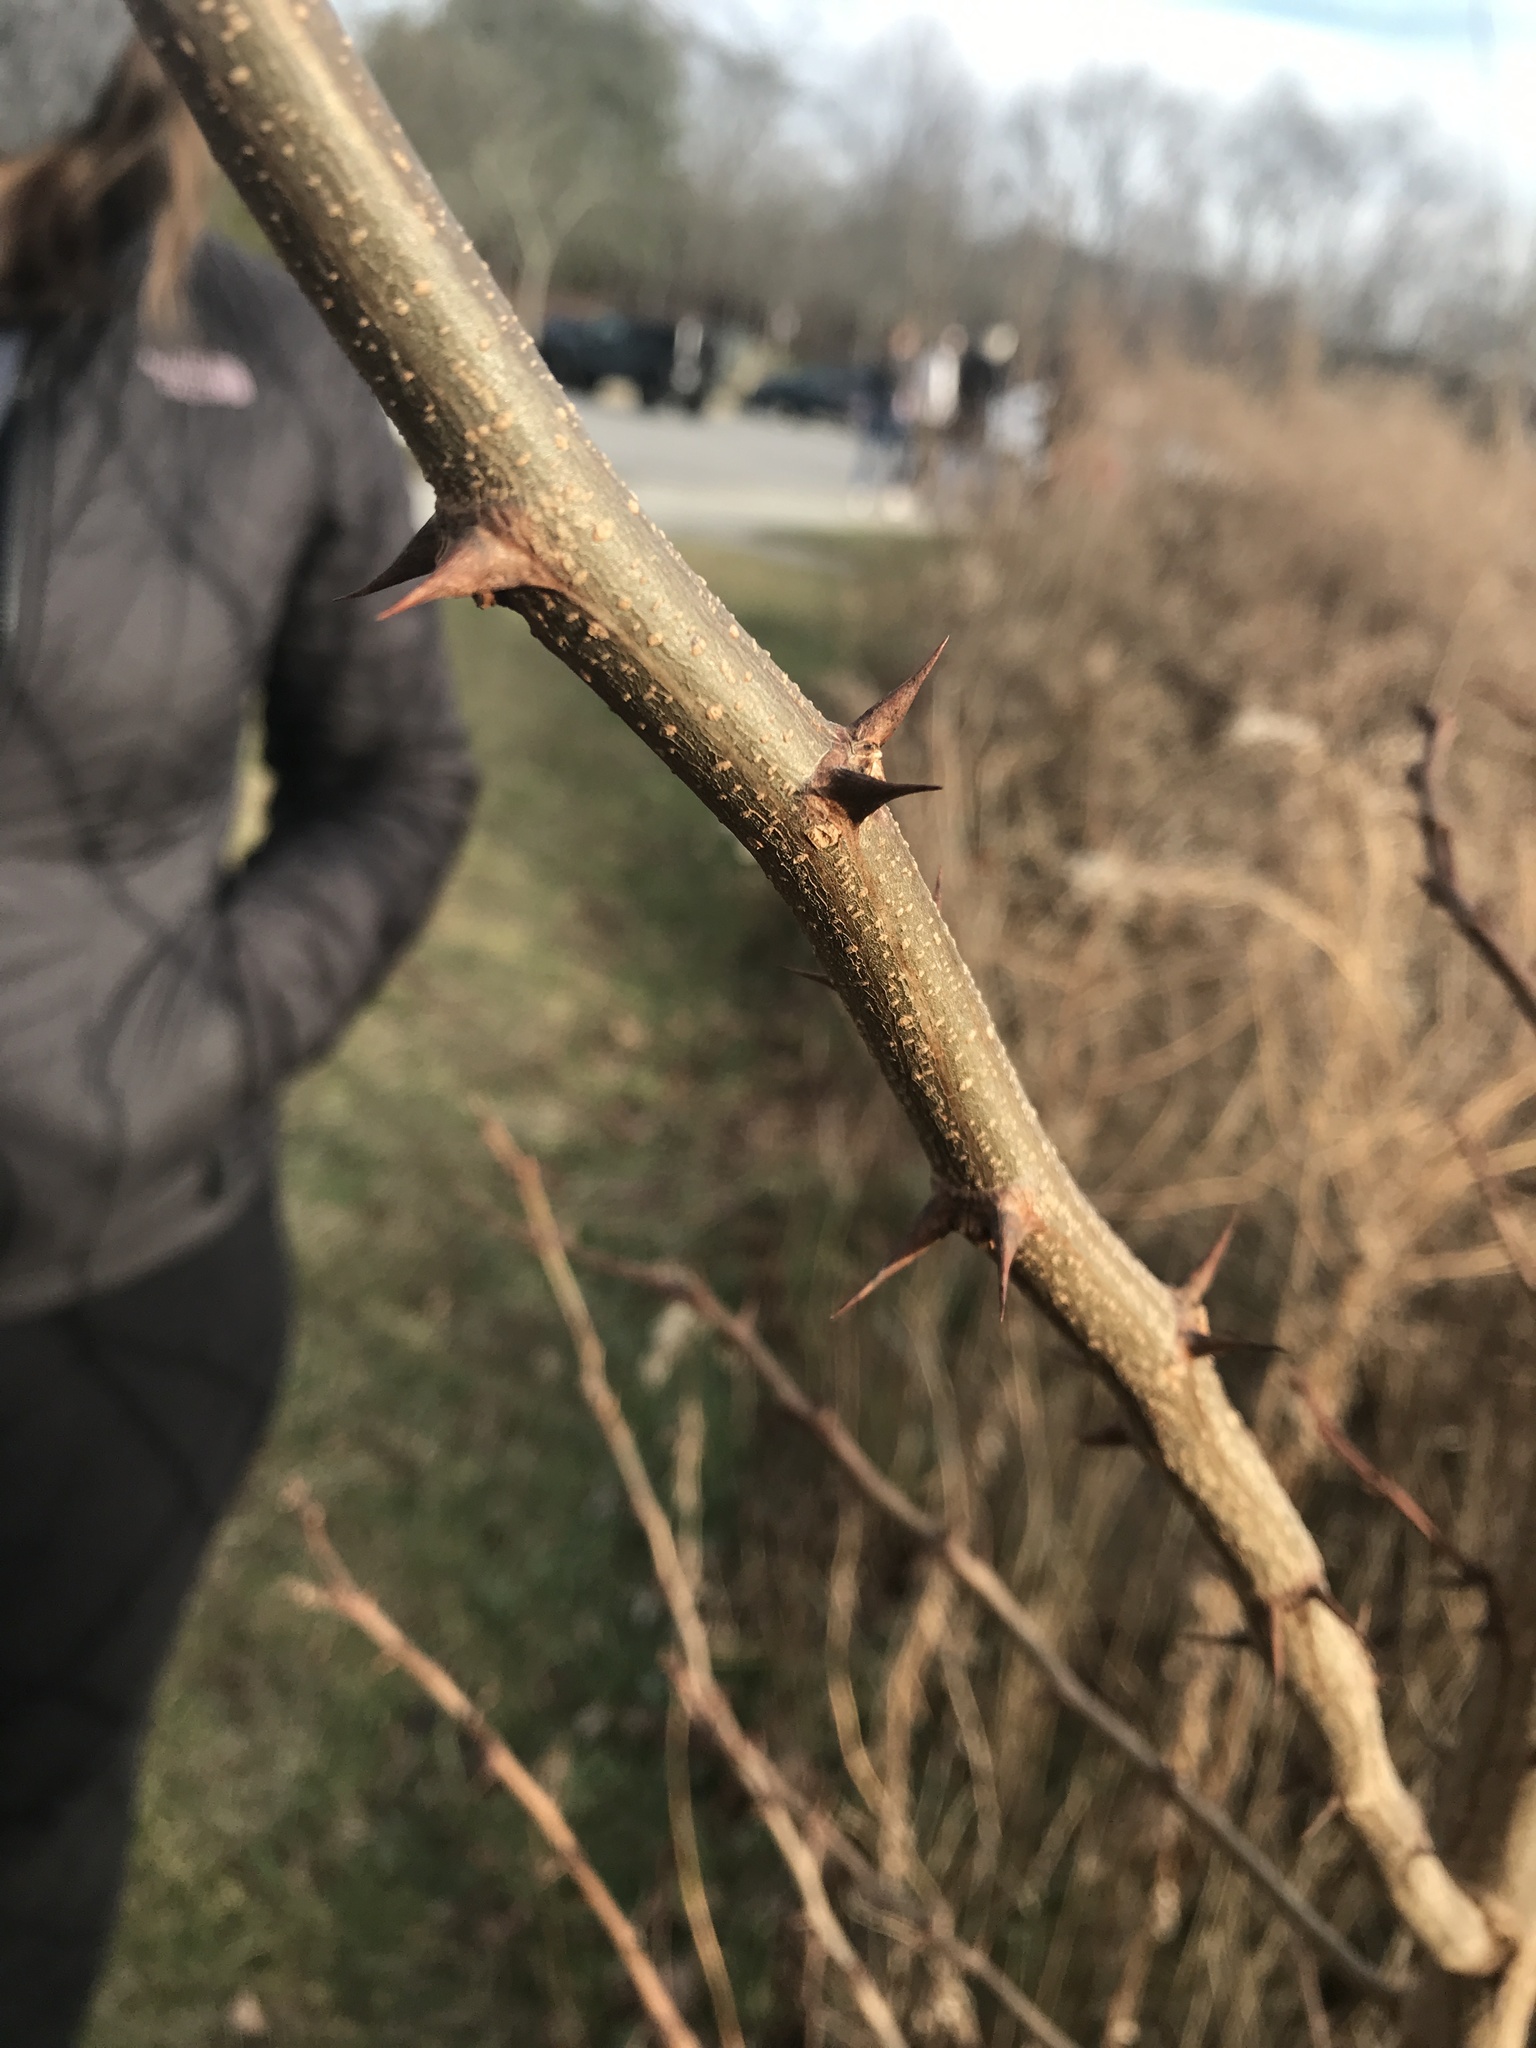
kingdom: Plantae
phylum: Tracheophyta
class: Magnoliopsida
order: Fabales
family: Fabaceae
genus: Robinia
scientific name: Robinia pseudoacacia
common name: Black locust
